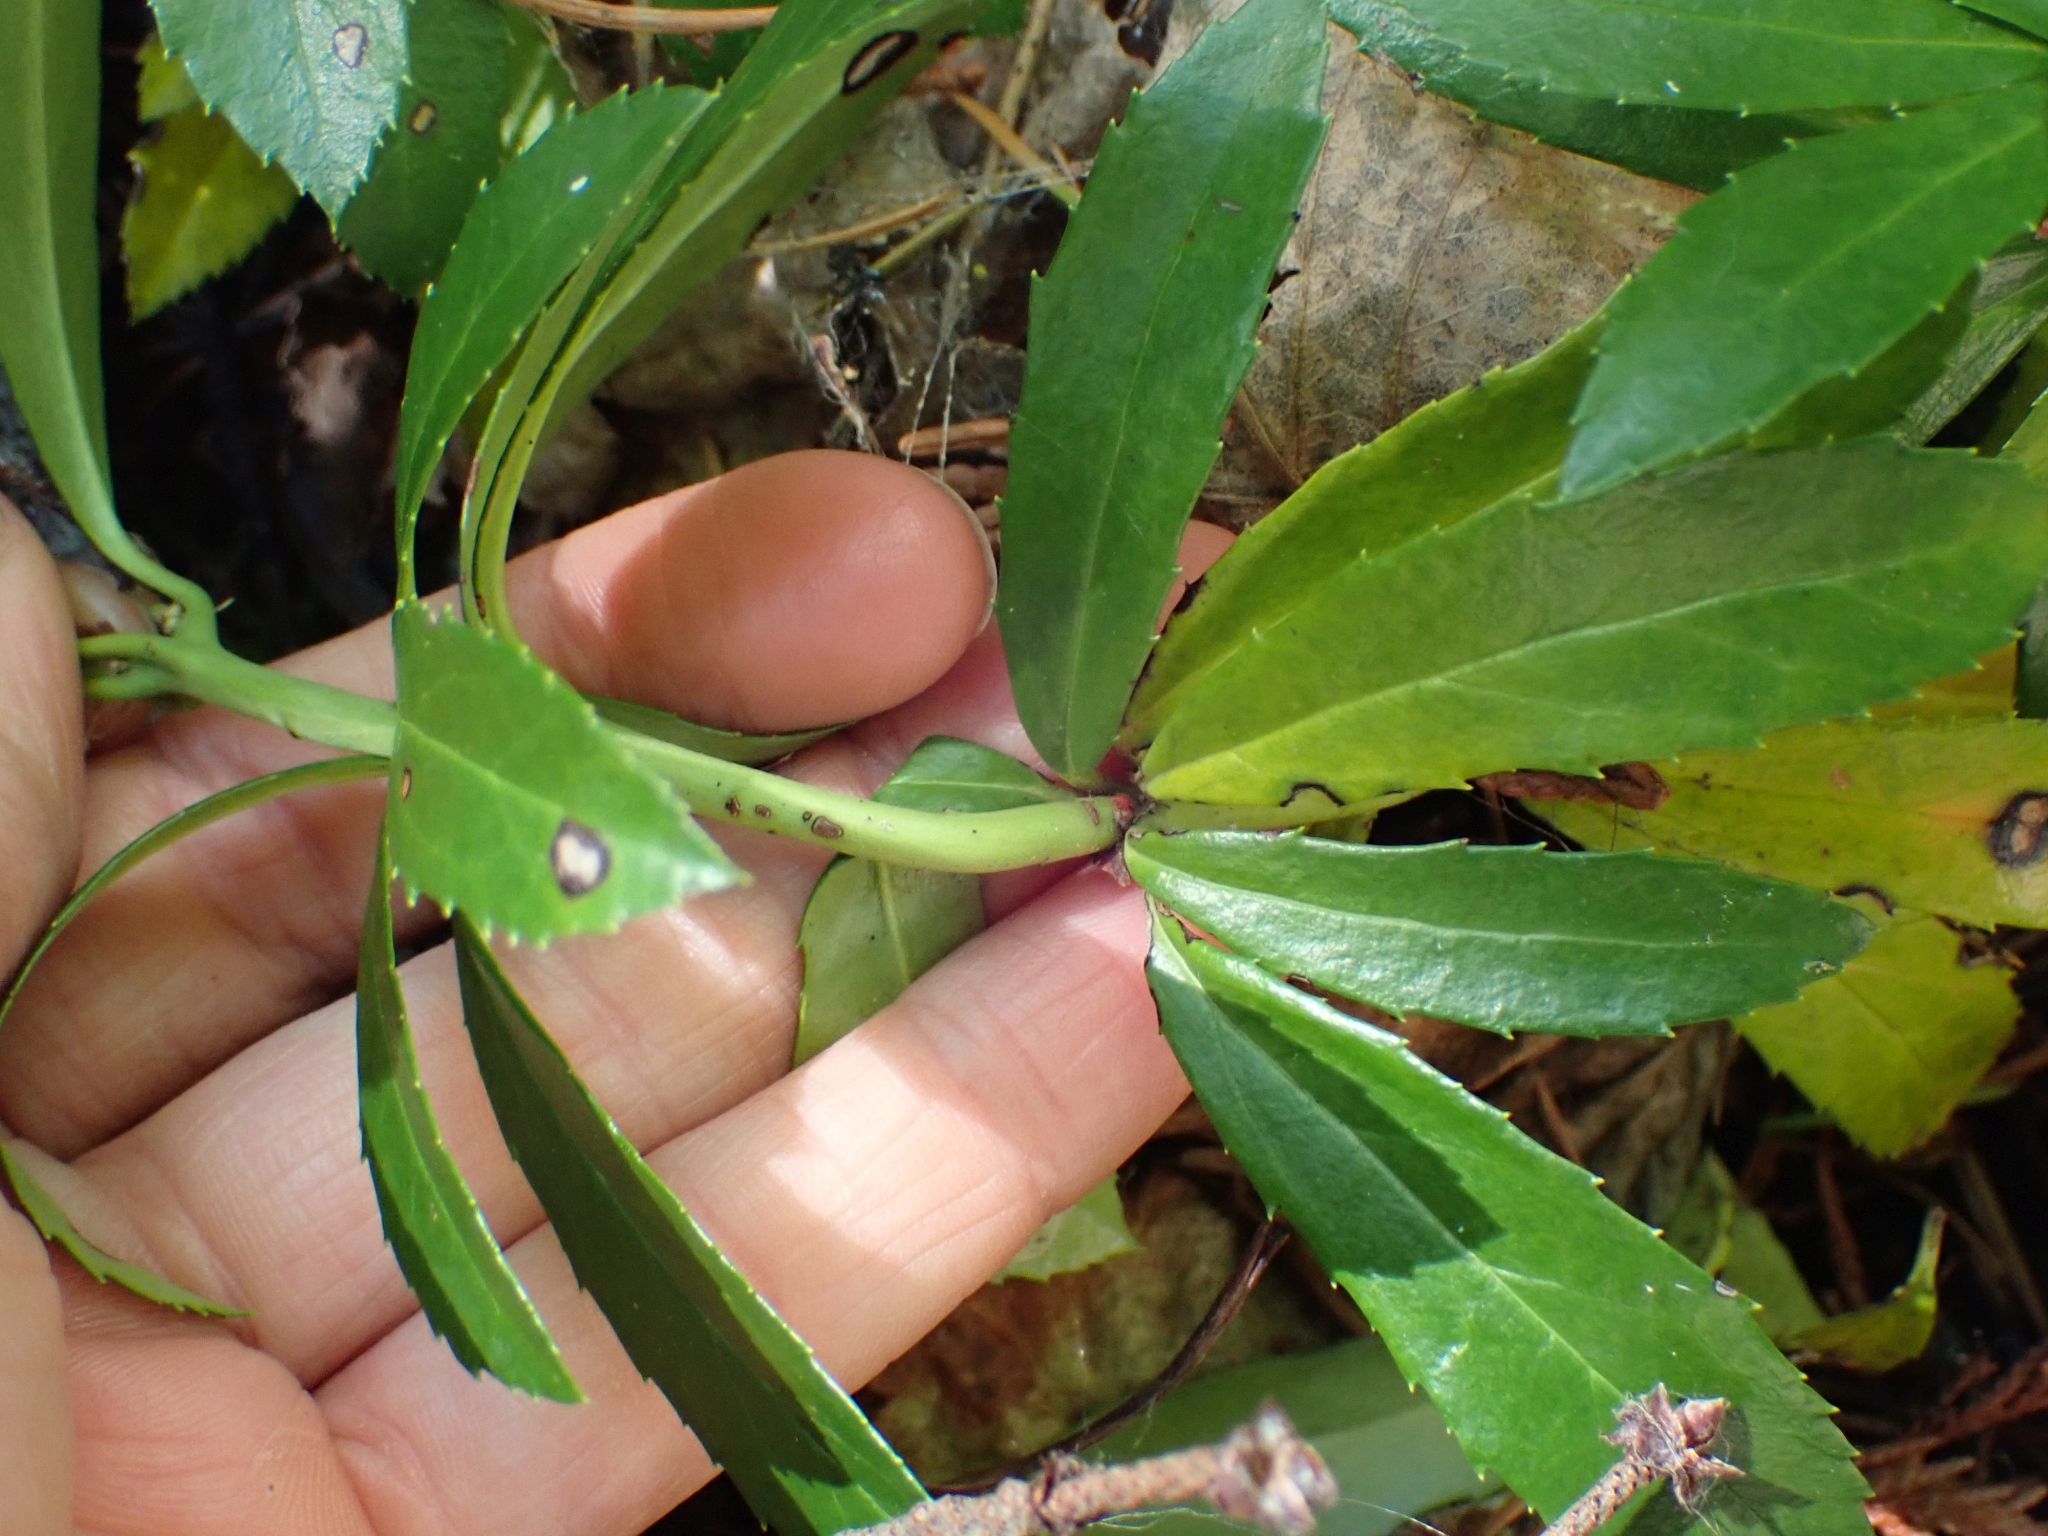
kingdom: Plantae
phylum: Tracheophyta
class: Magnoliopsida
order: Ericales
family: Ericaceae
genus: Chimaphila
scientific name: Chimaphila umbellata
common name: Pipsissewa
